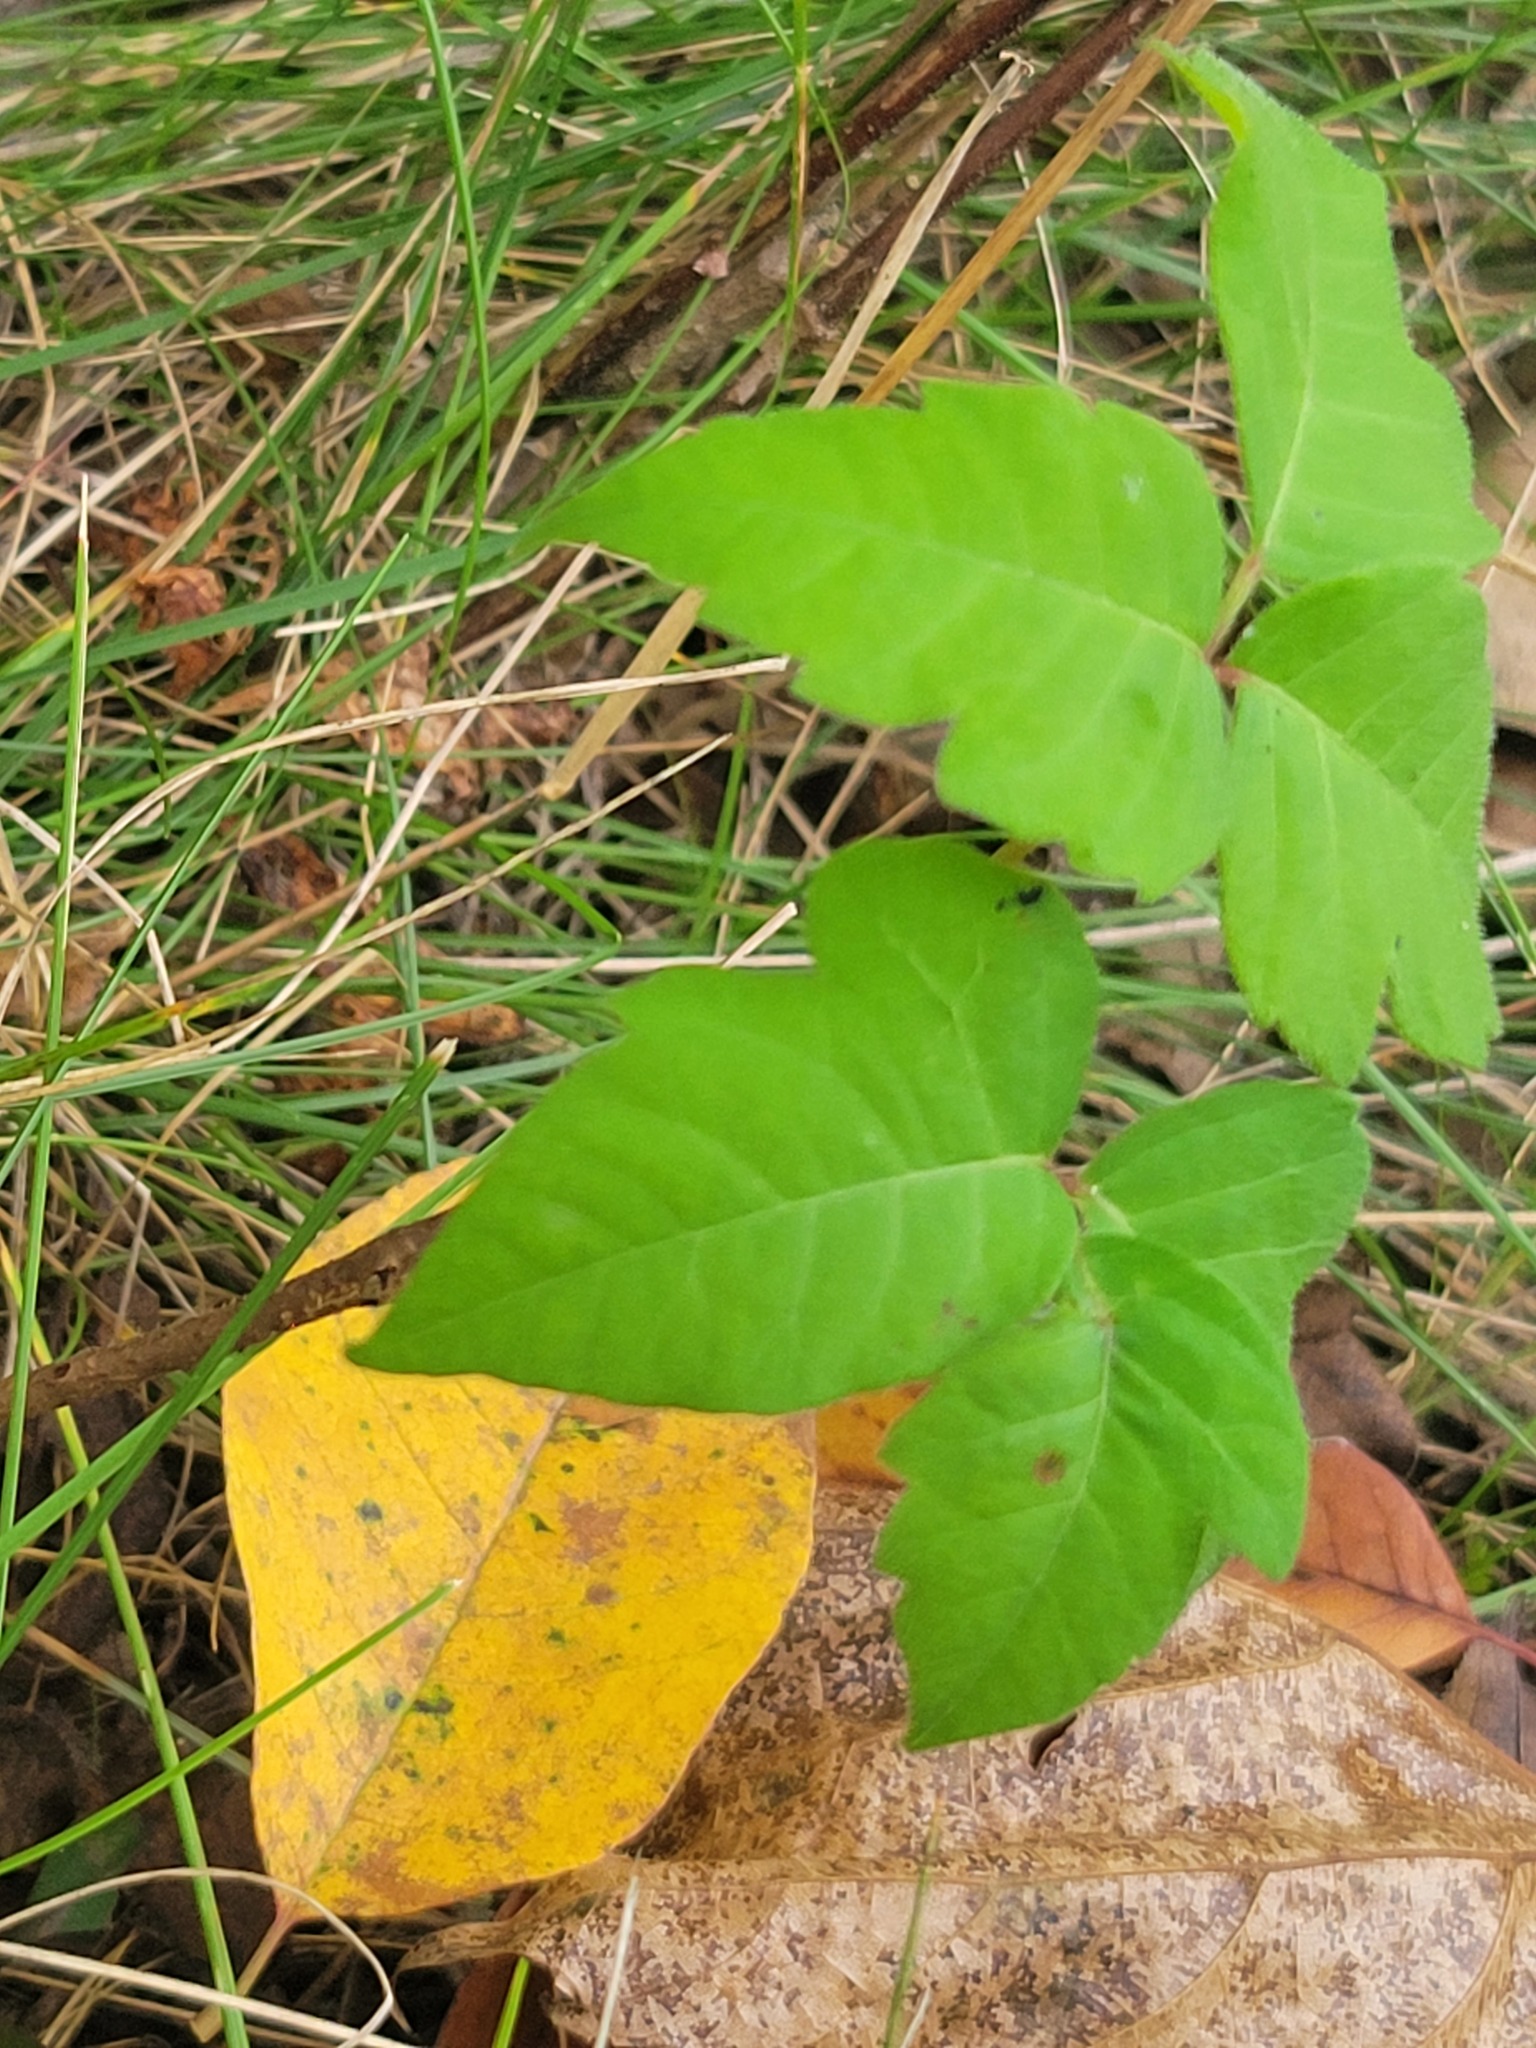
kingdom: Plantae
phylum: Tracheophyta
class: Magnoliopsida
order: Sapindales
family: Anacardiaceae
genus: Toxicodendron
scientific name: Toxicodendron radicans
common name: Poison ivy
